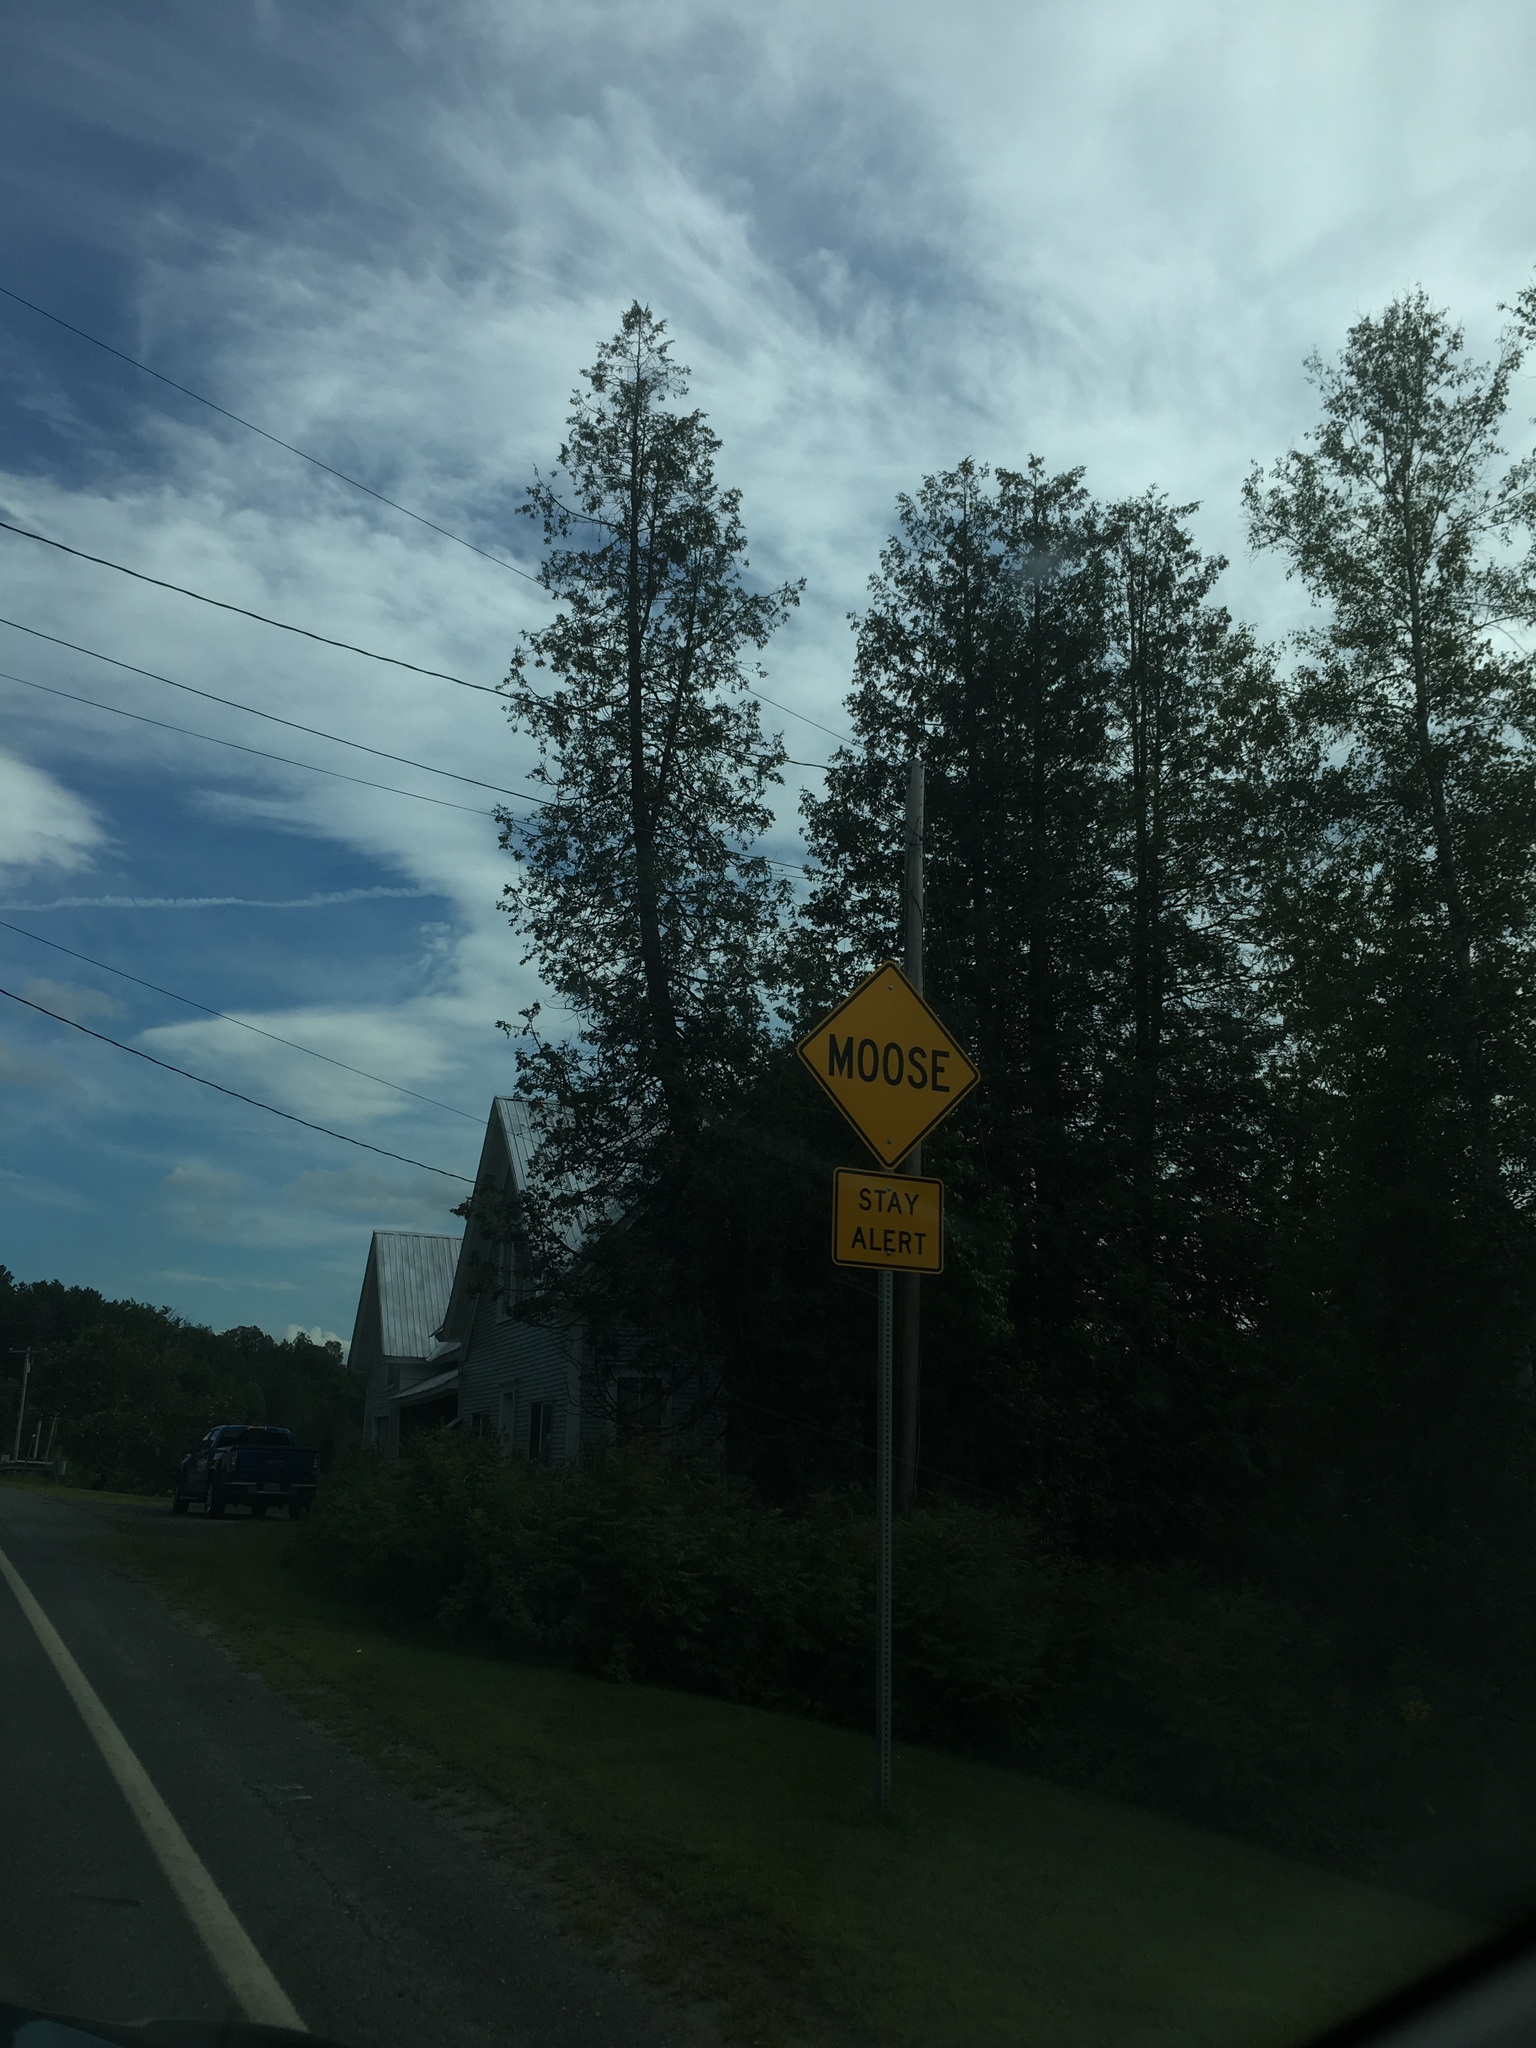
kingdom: Plantae
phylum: Tracheophyta
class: Pinopsida
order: Pinales
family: Cupressaceae
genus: Thuja
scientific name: Thuja occidentalis
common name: Northern white-cedar
